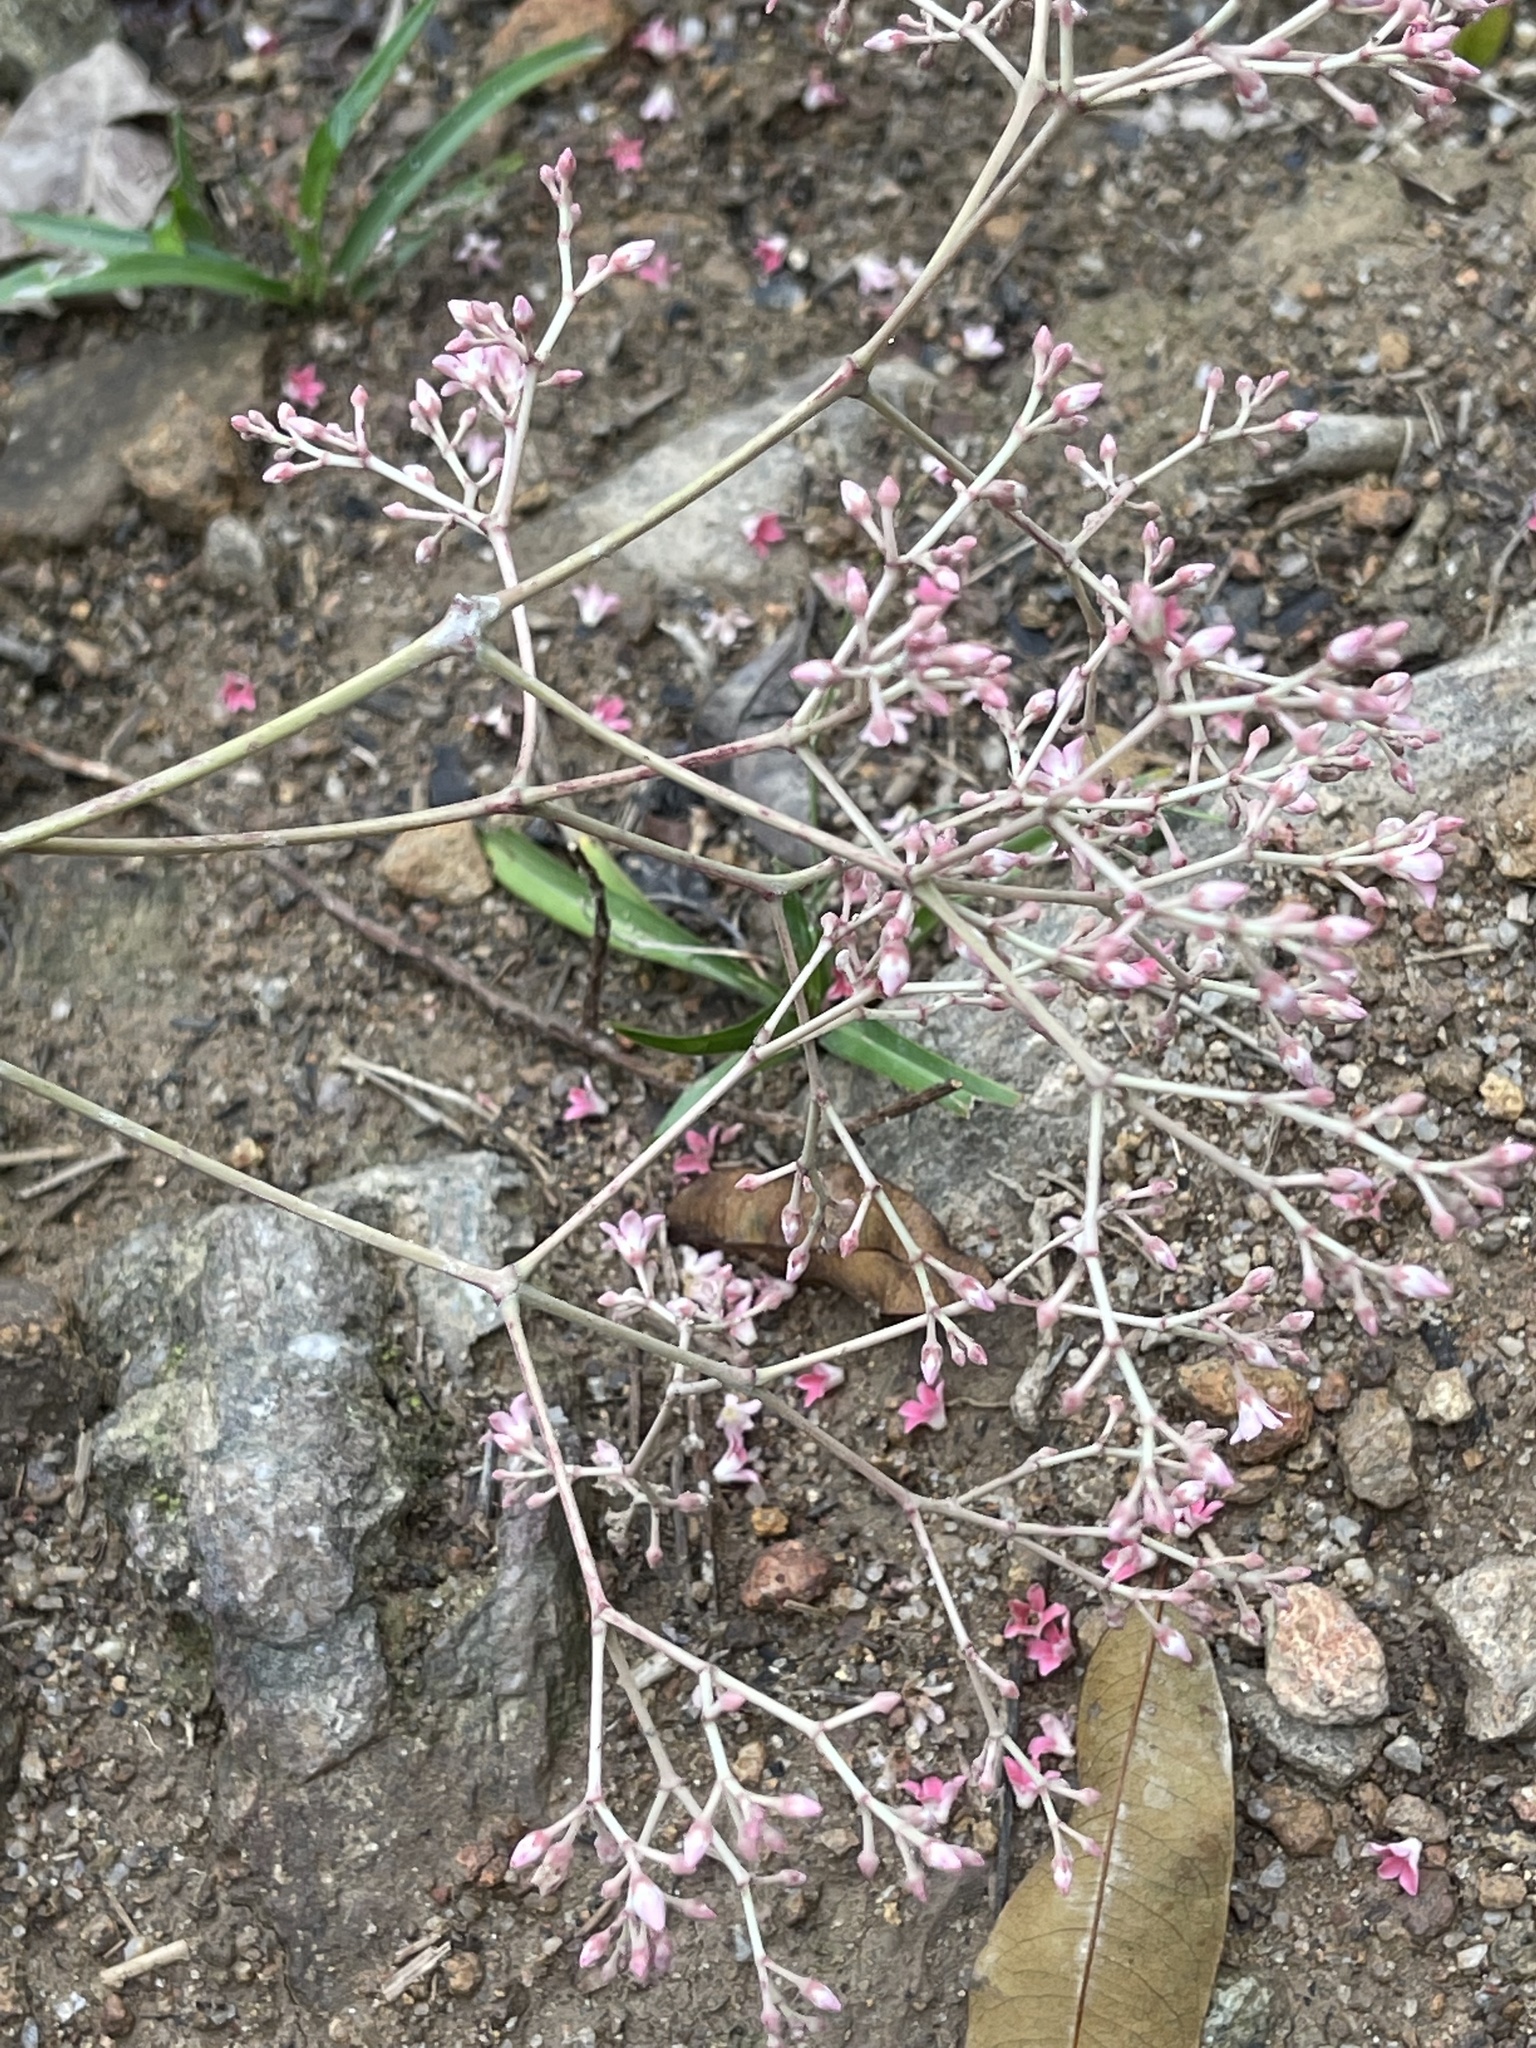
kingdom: Plantae
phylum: Tracheophyta
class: Magnoliopsida
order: Gentianales
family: Apocynaceae
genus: Urceola
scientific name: Urceola rosea
